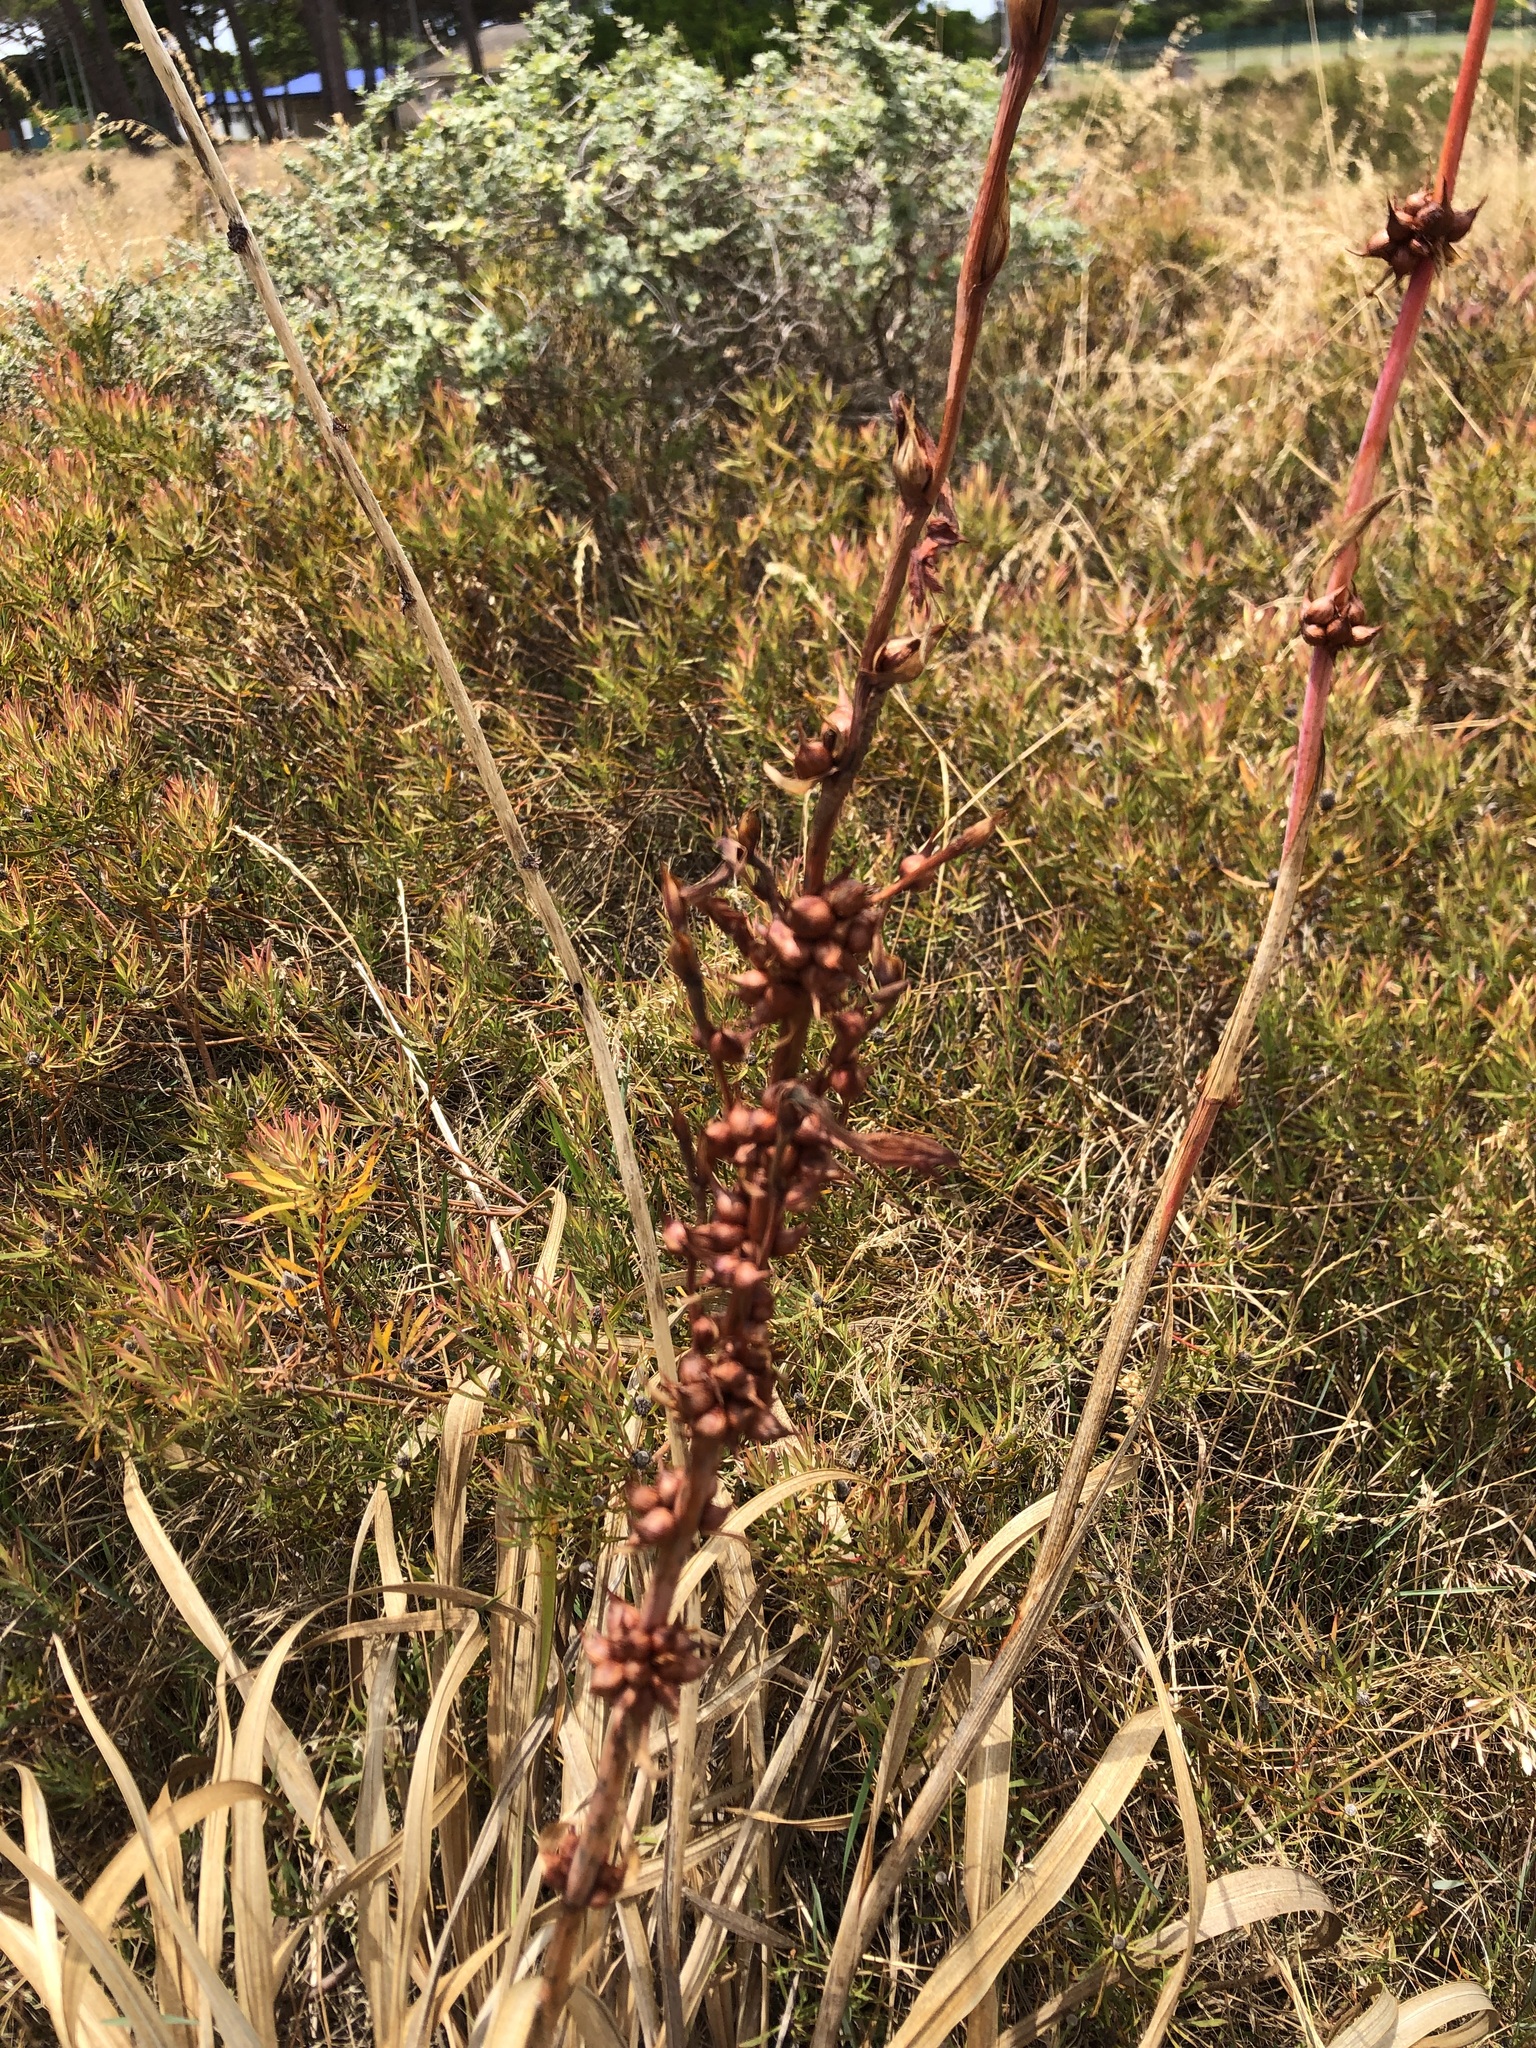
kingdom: Plantae
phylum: Tracheophyta
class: Liliopsida
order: Asparagales
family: Iridaceae
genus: Watsonia
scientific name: Watsonia meriana
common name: Bulbil bugle-lily
